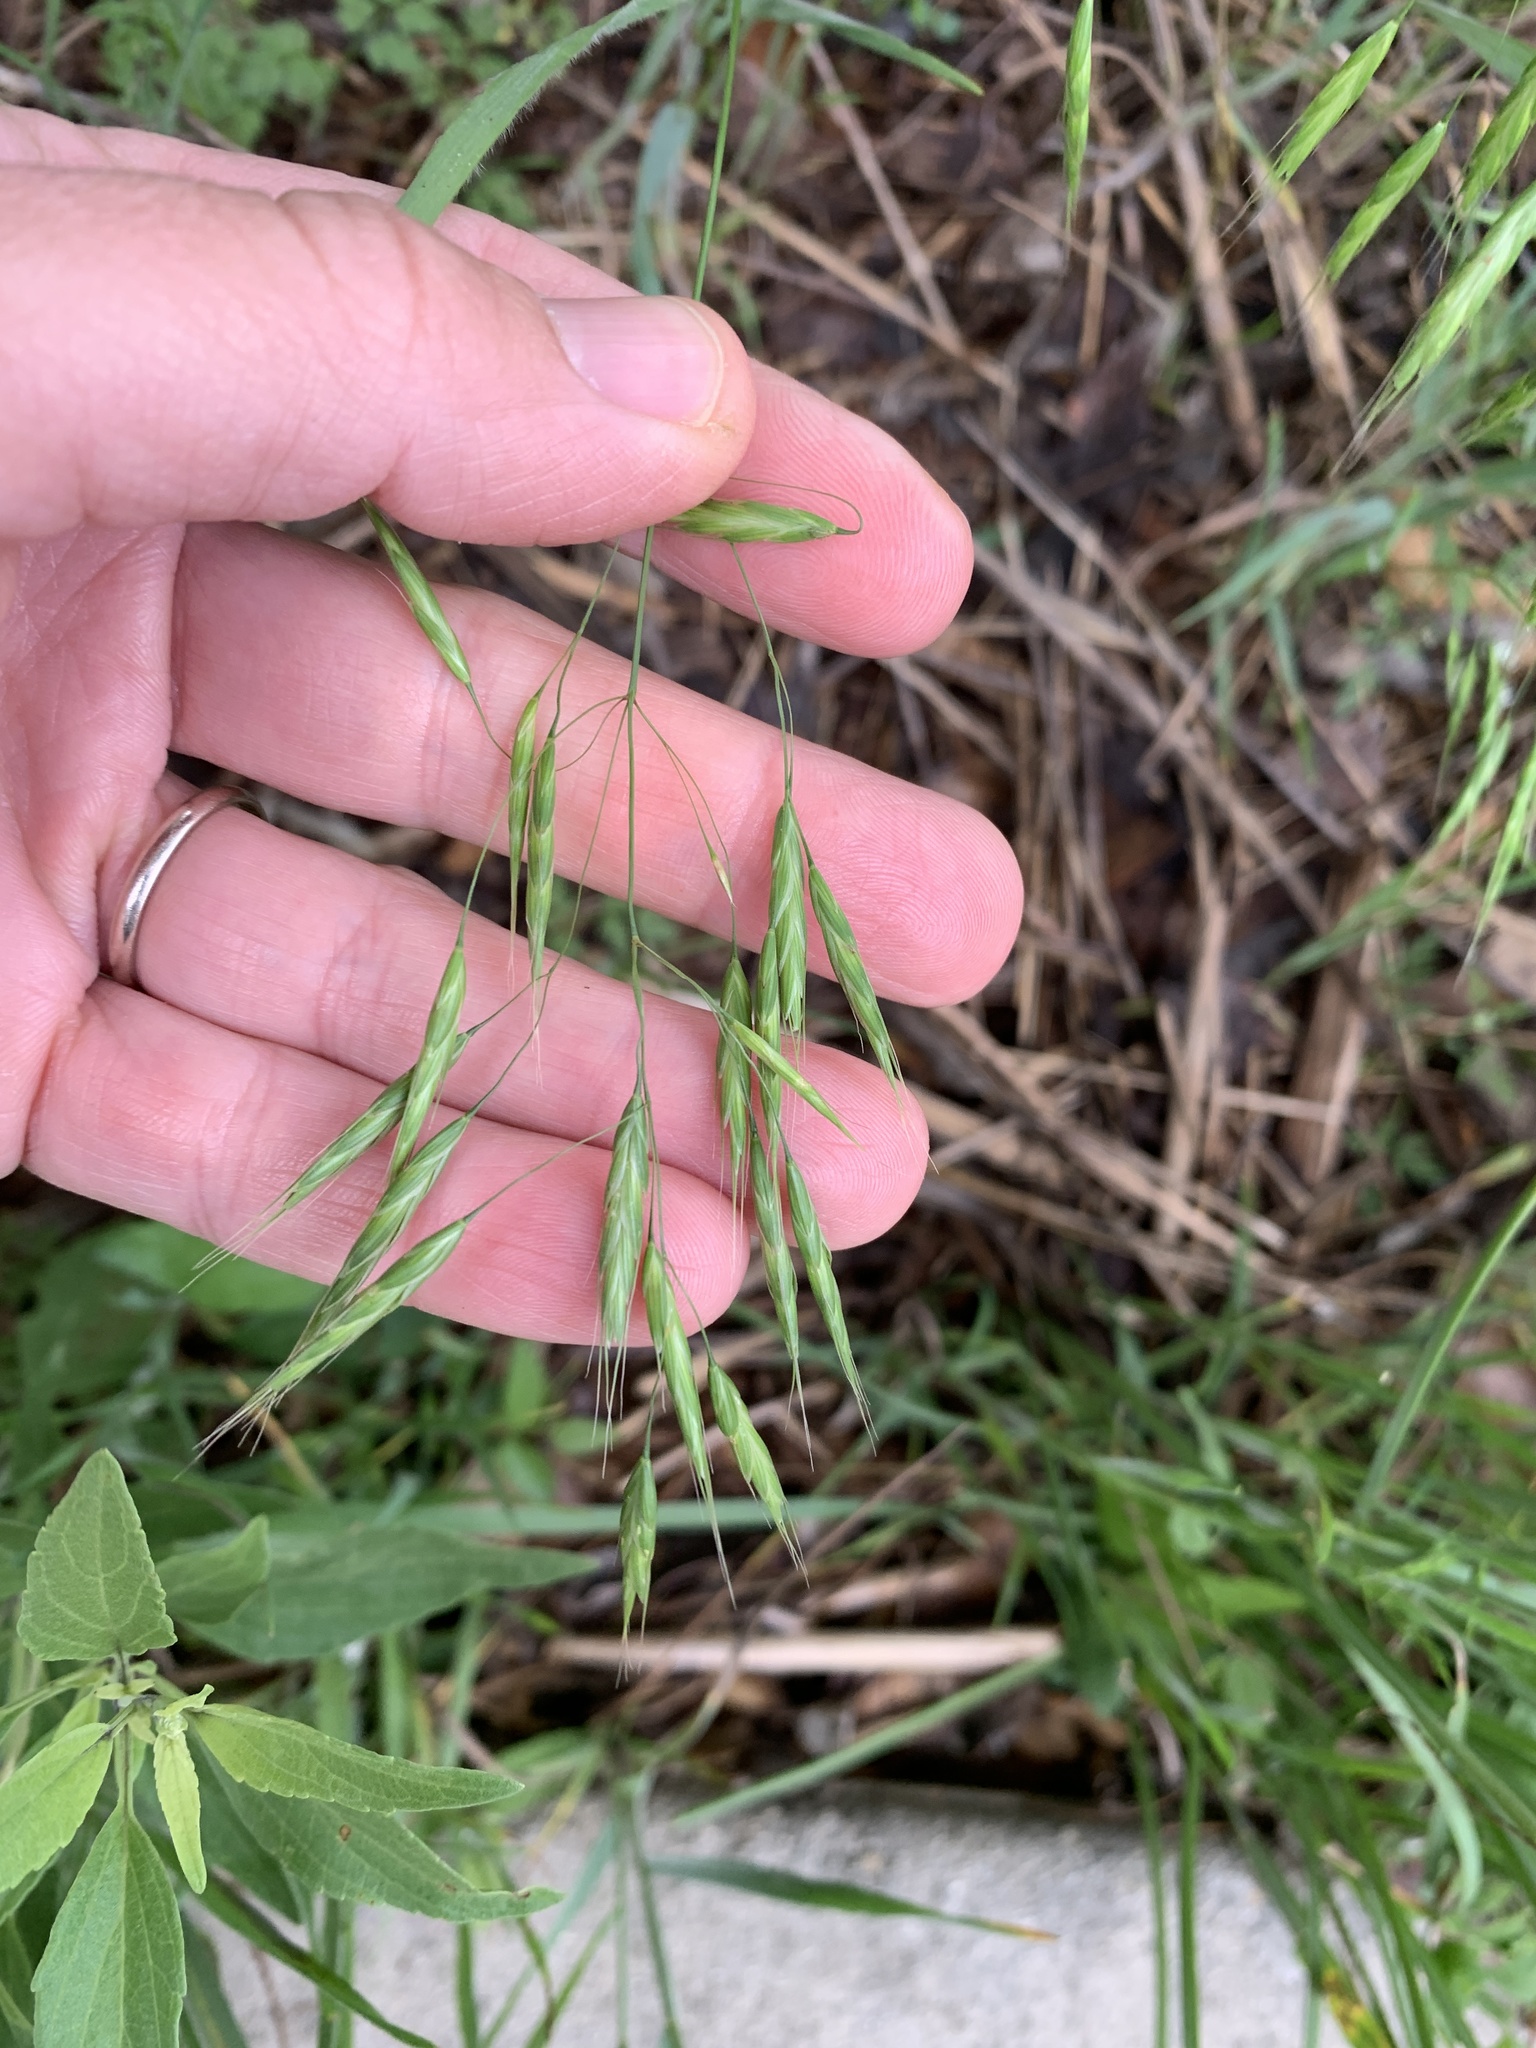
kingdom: Plantae
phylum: Tracheophyta
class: Liliopsida
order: Poales
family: Poaceae
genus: Bromus
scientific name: Bromus japonicus
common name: Japanese brome
